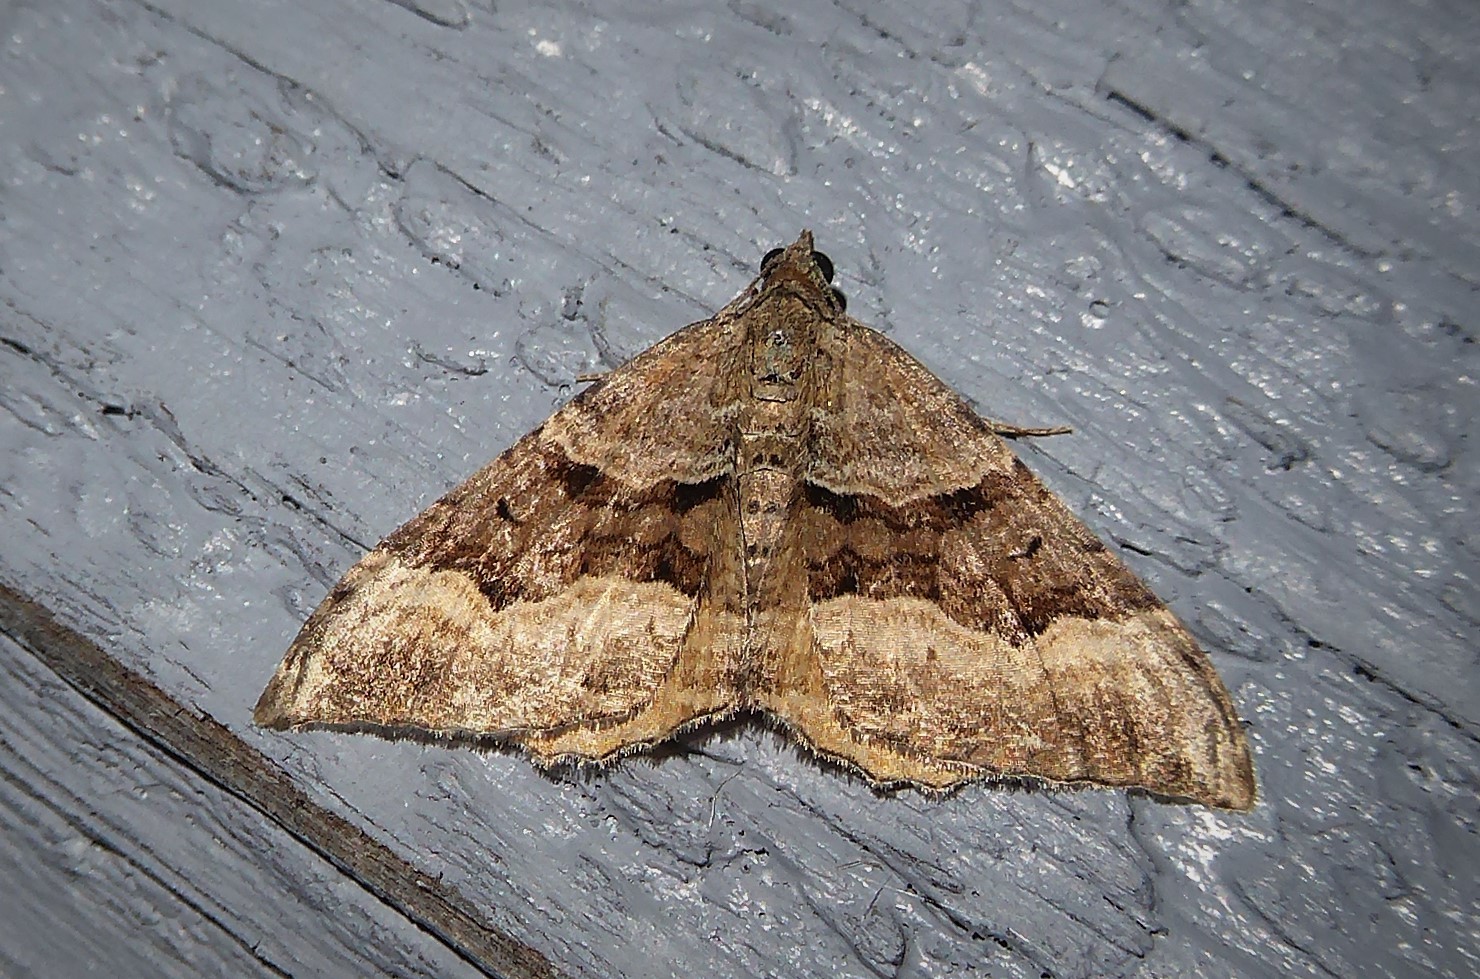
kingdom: Animalia
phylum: Arthropoda
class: Insecta
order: Lepidoptera
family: Geometridae
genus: Hydriomena
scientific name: Hydriomena deltoidata
